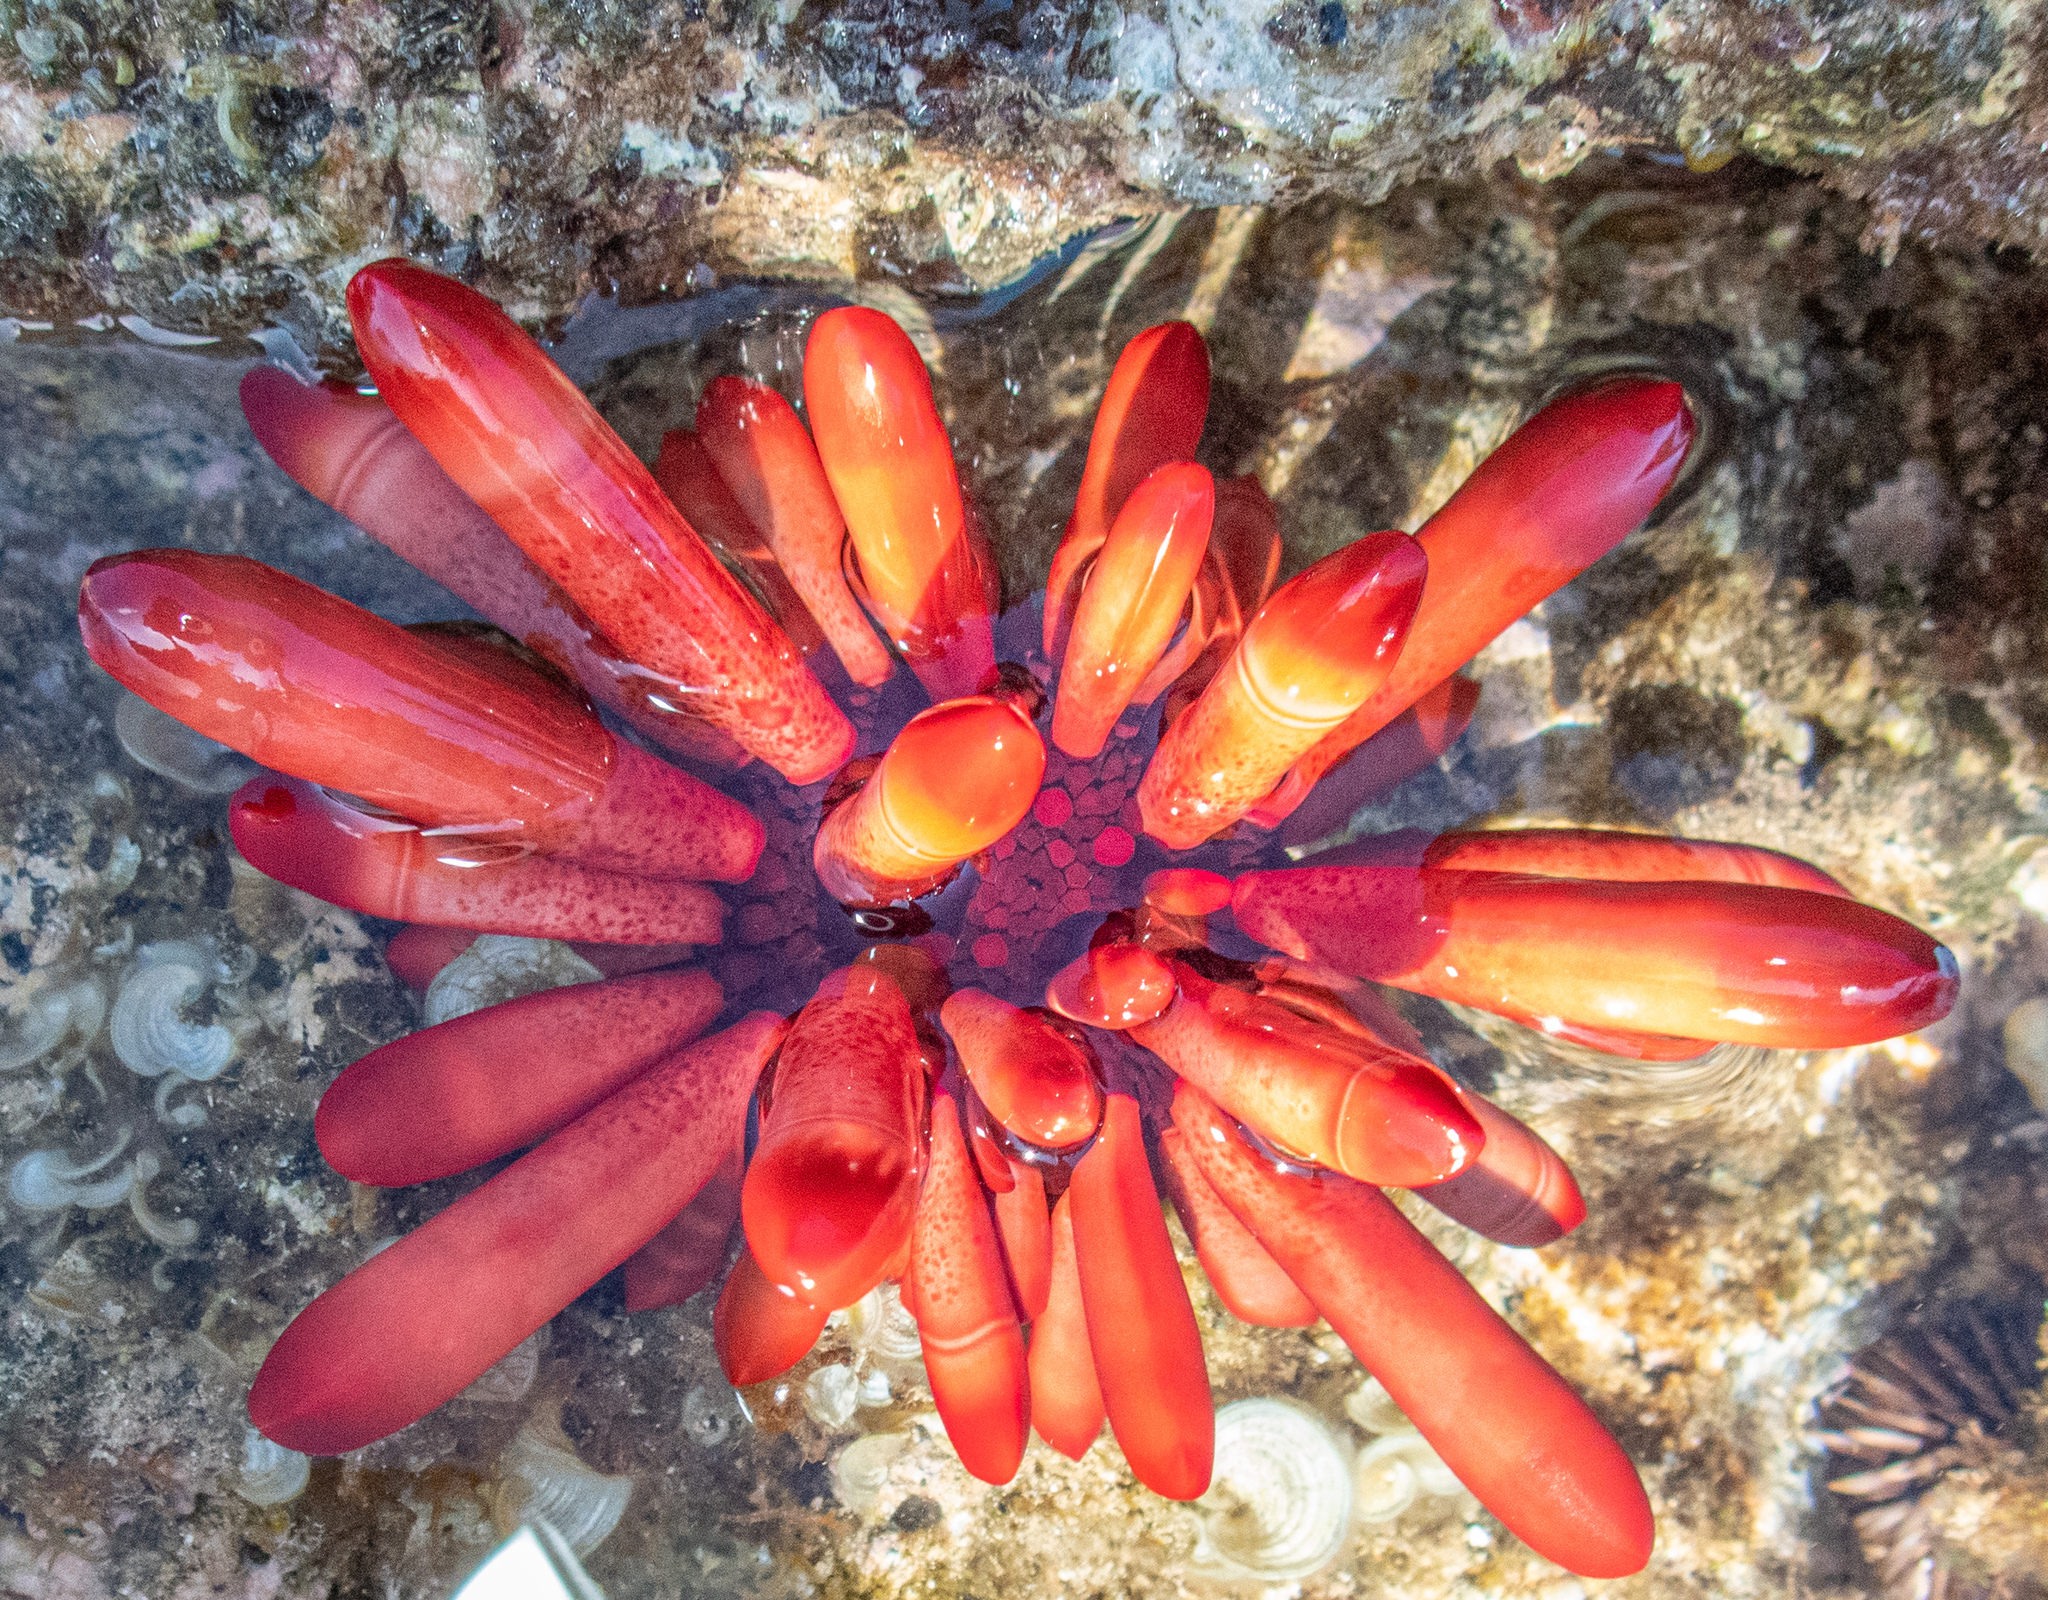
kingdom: Animalia
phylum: Echinodermata
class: Echinoidea
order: Camarodonta
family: Echinometridae
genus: Heterocentrotus
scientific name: Heterocentrotus mamillatus
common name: Slate pencil urchin
